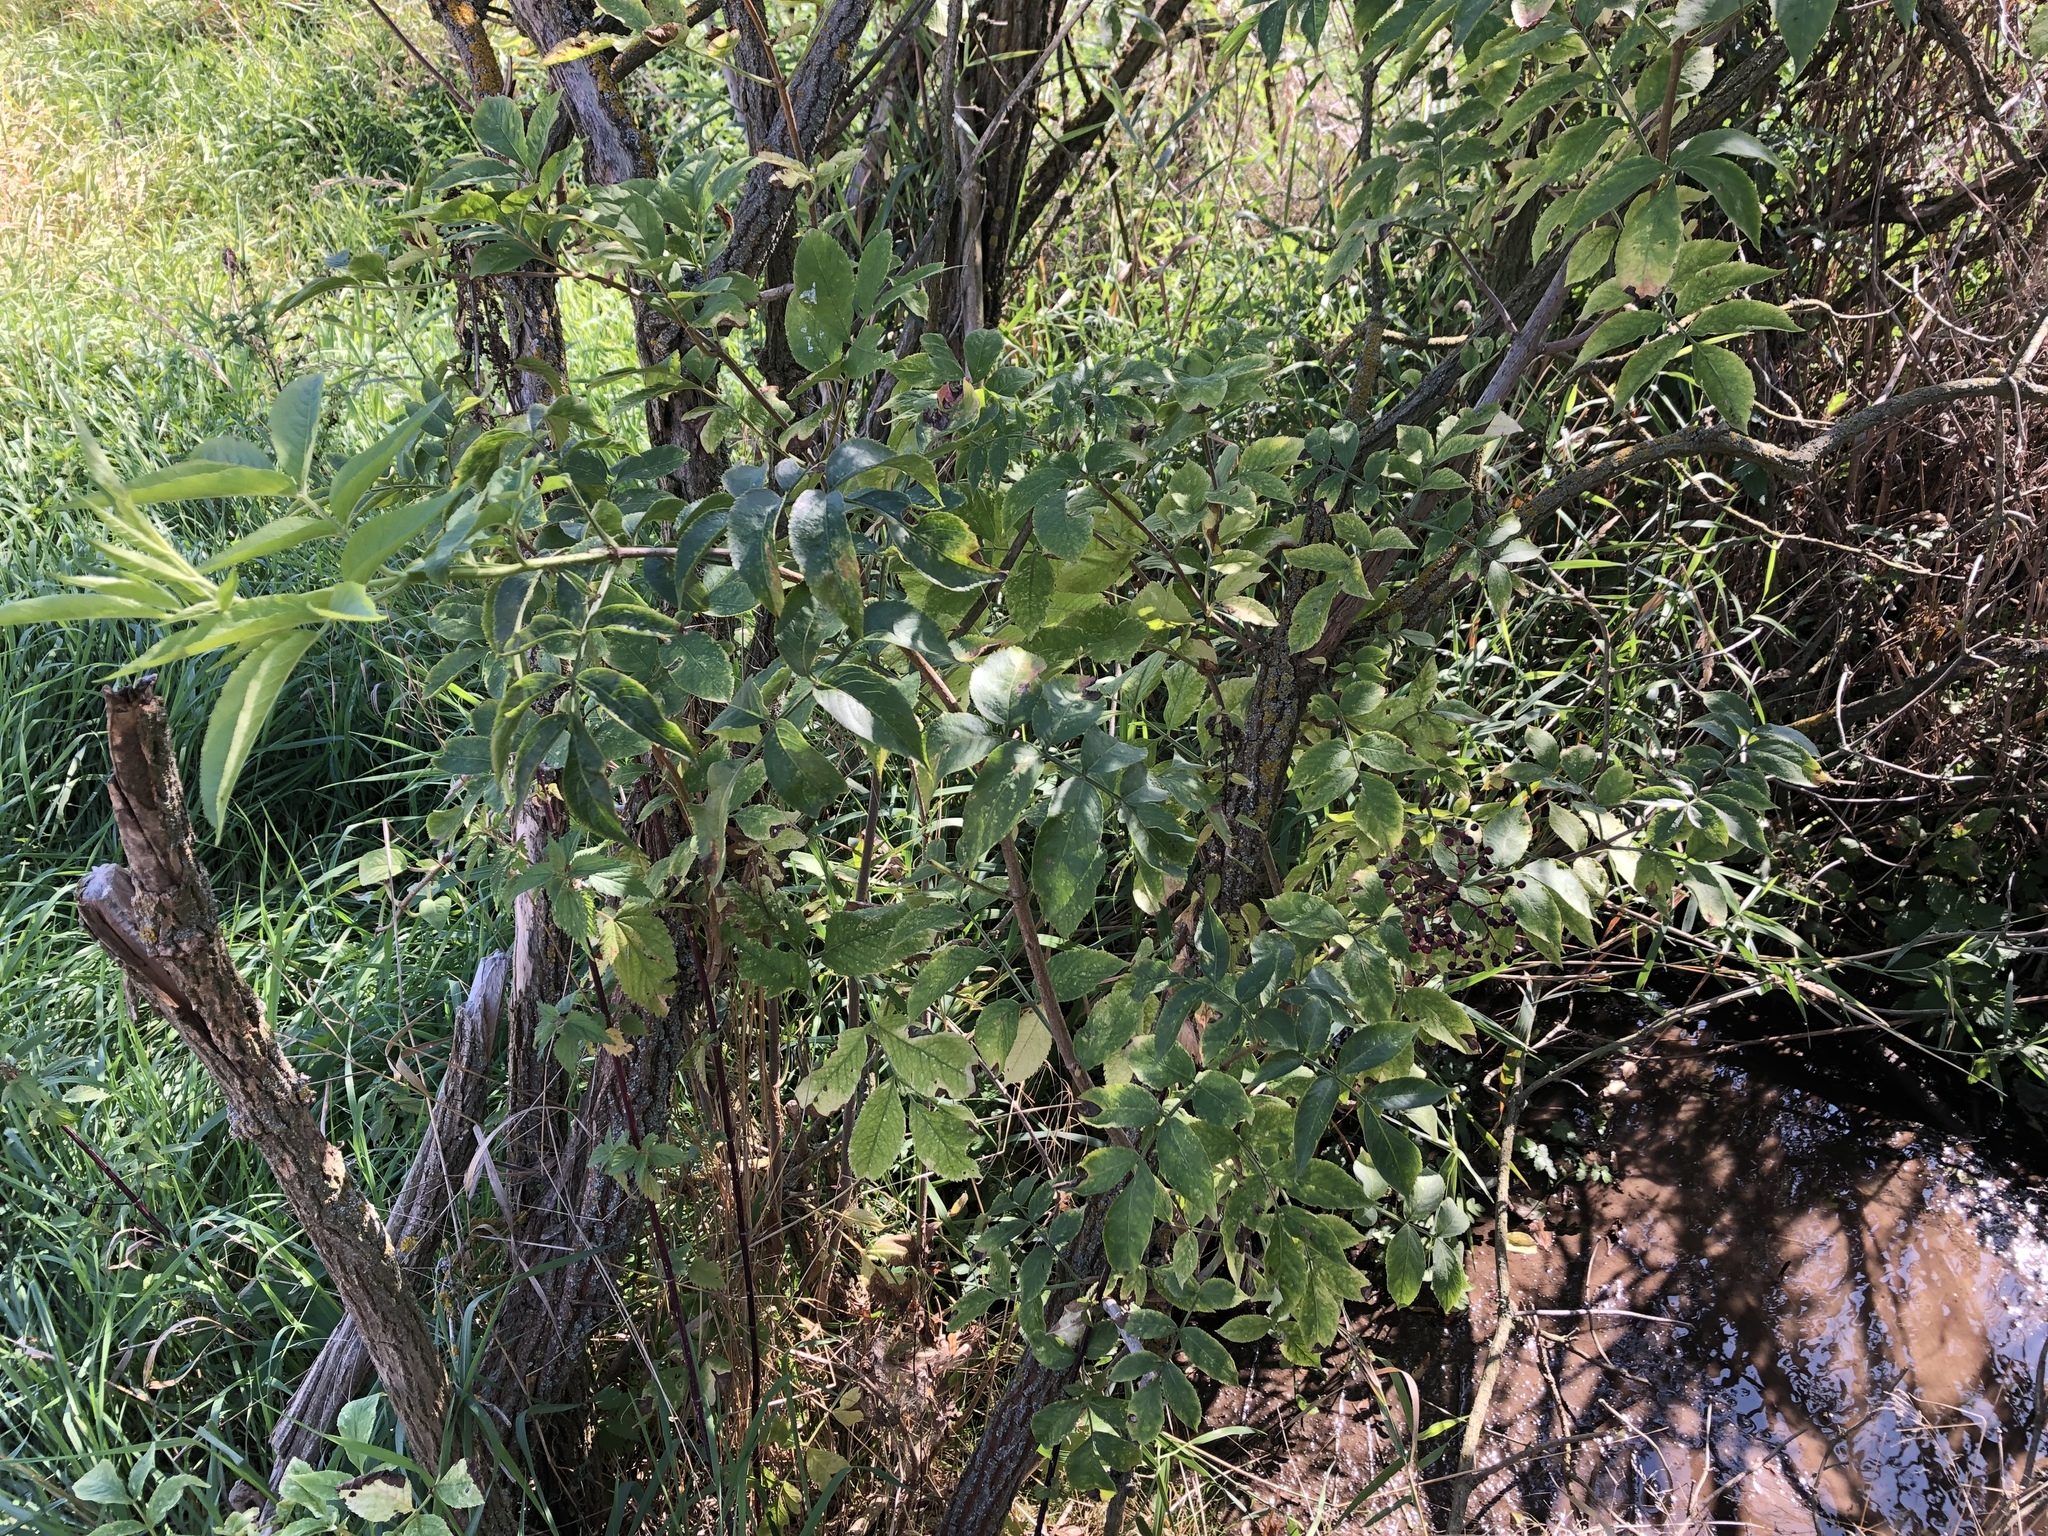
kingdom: Plantae
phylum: Tracheophyta
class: Magnoliopsida
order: Dipsacales
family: Viburnaceae
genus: Sambucus
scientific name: Sambucus nigra
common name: Elder
